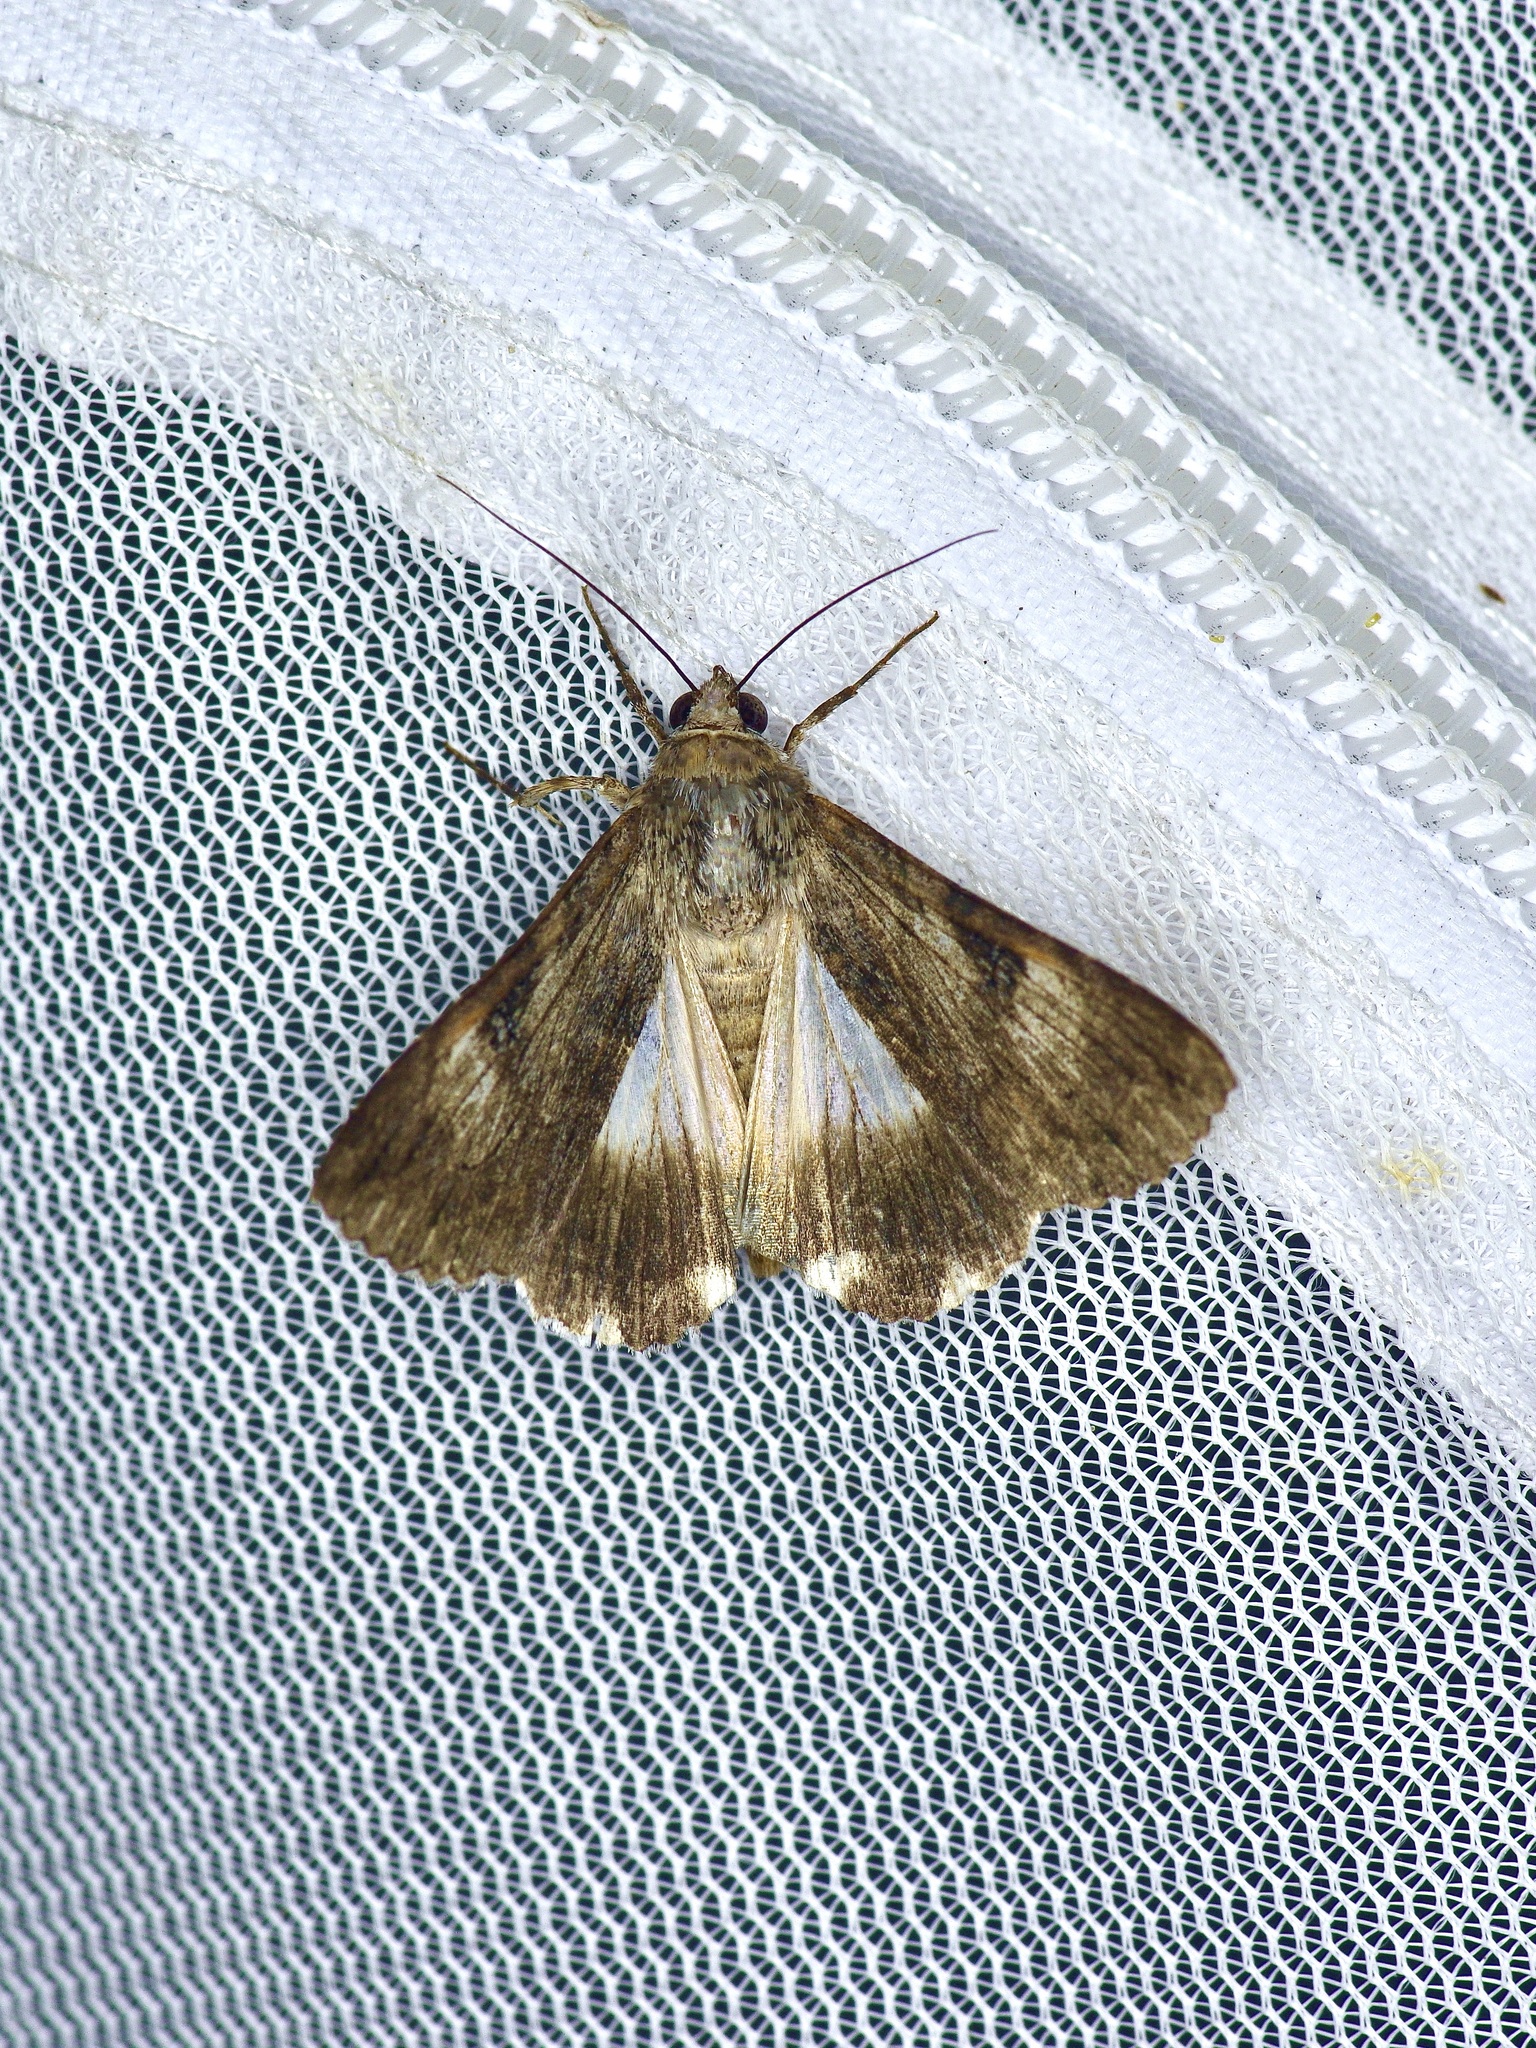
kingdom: Animalia
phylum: Arthropoda
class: Insecta
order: Lepidoptera
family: Erebidae
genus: Melipotis
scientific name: Melipotis jucunda
